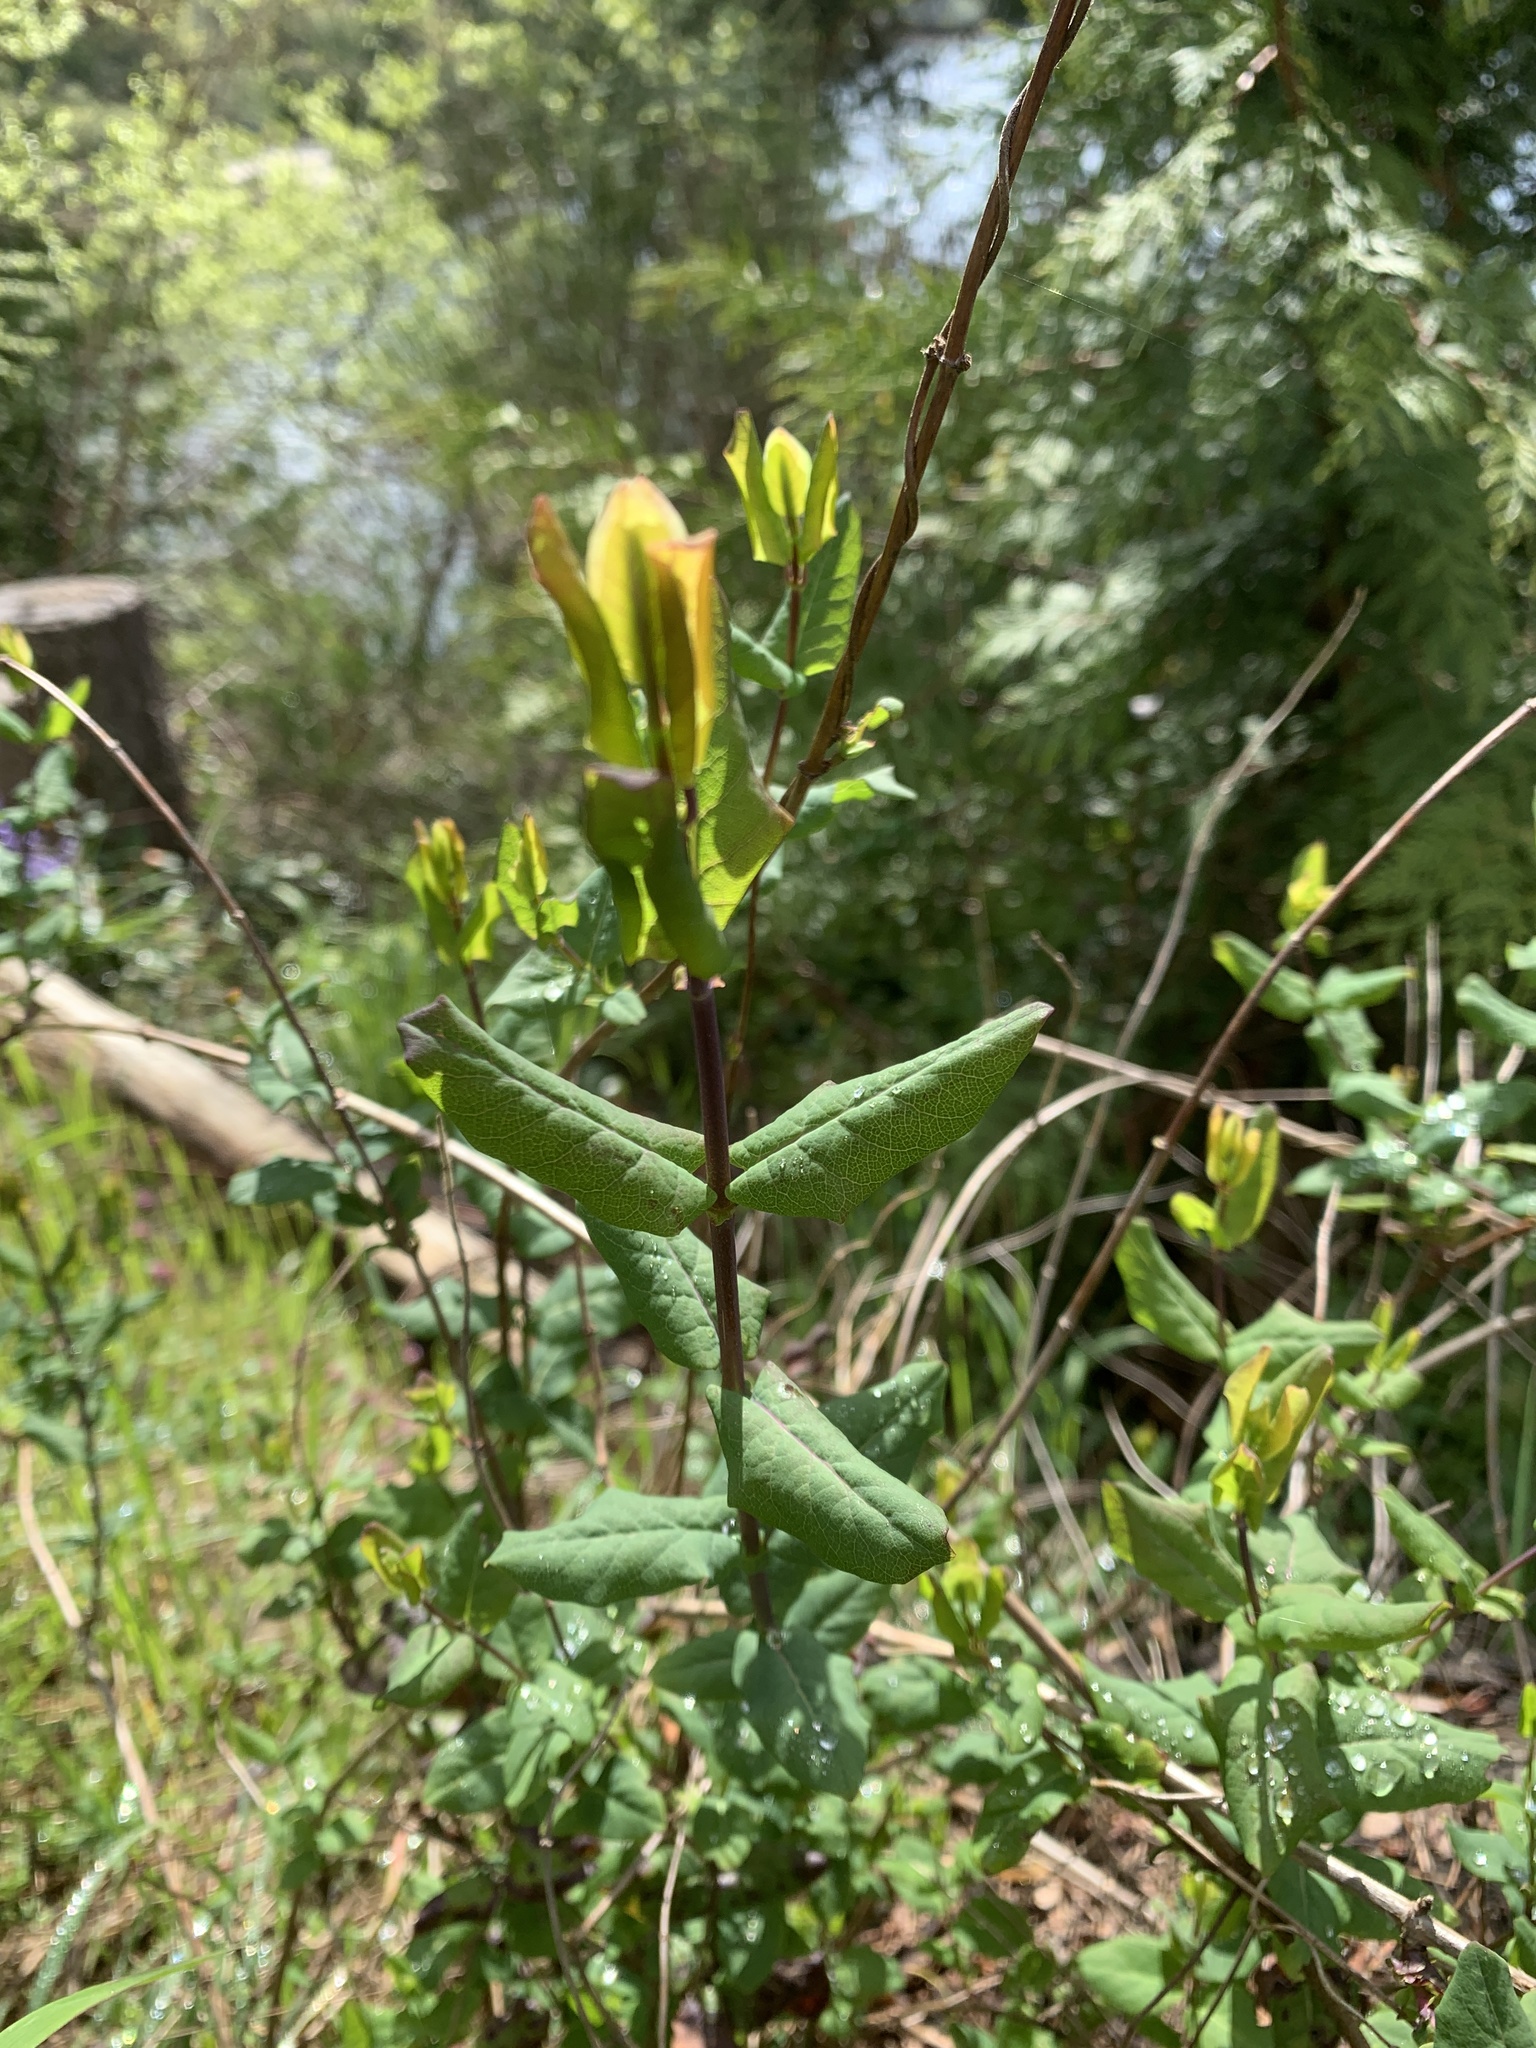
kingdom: Plantae
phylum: Tracheophyta
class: Magnoliopsida
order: Dipsacales
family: Caprifoliaceae
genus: Lonicera
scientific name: Lonicera hispidula
